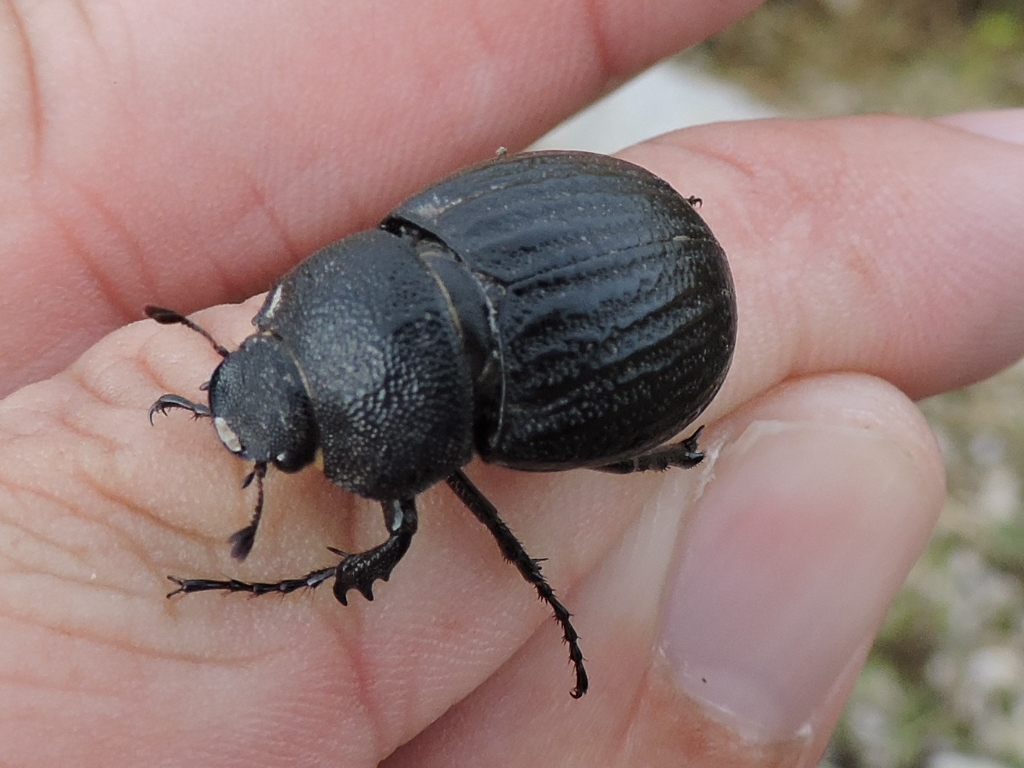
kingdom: Animalia
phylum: Arthropoda
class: Insecta
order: Coleoptera
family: Scarabaeidae
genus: Phyllophaga
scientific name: Phyllophaga cribrosa
